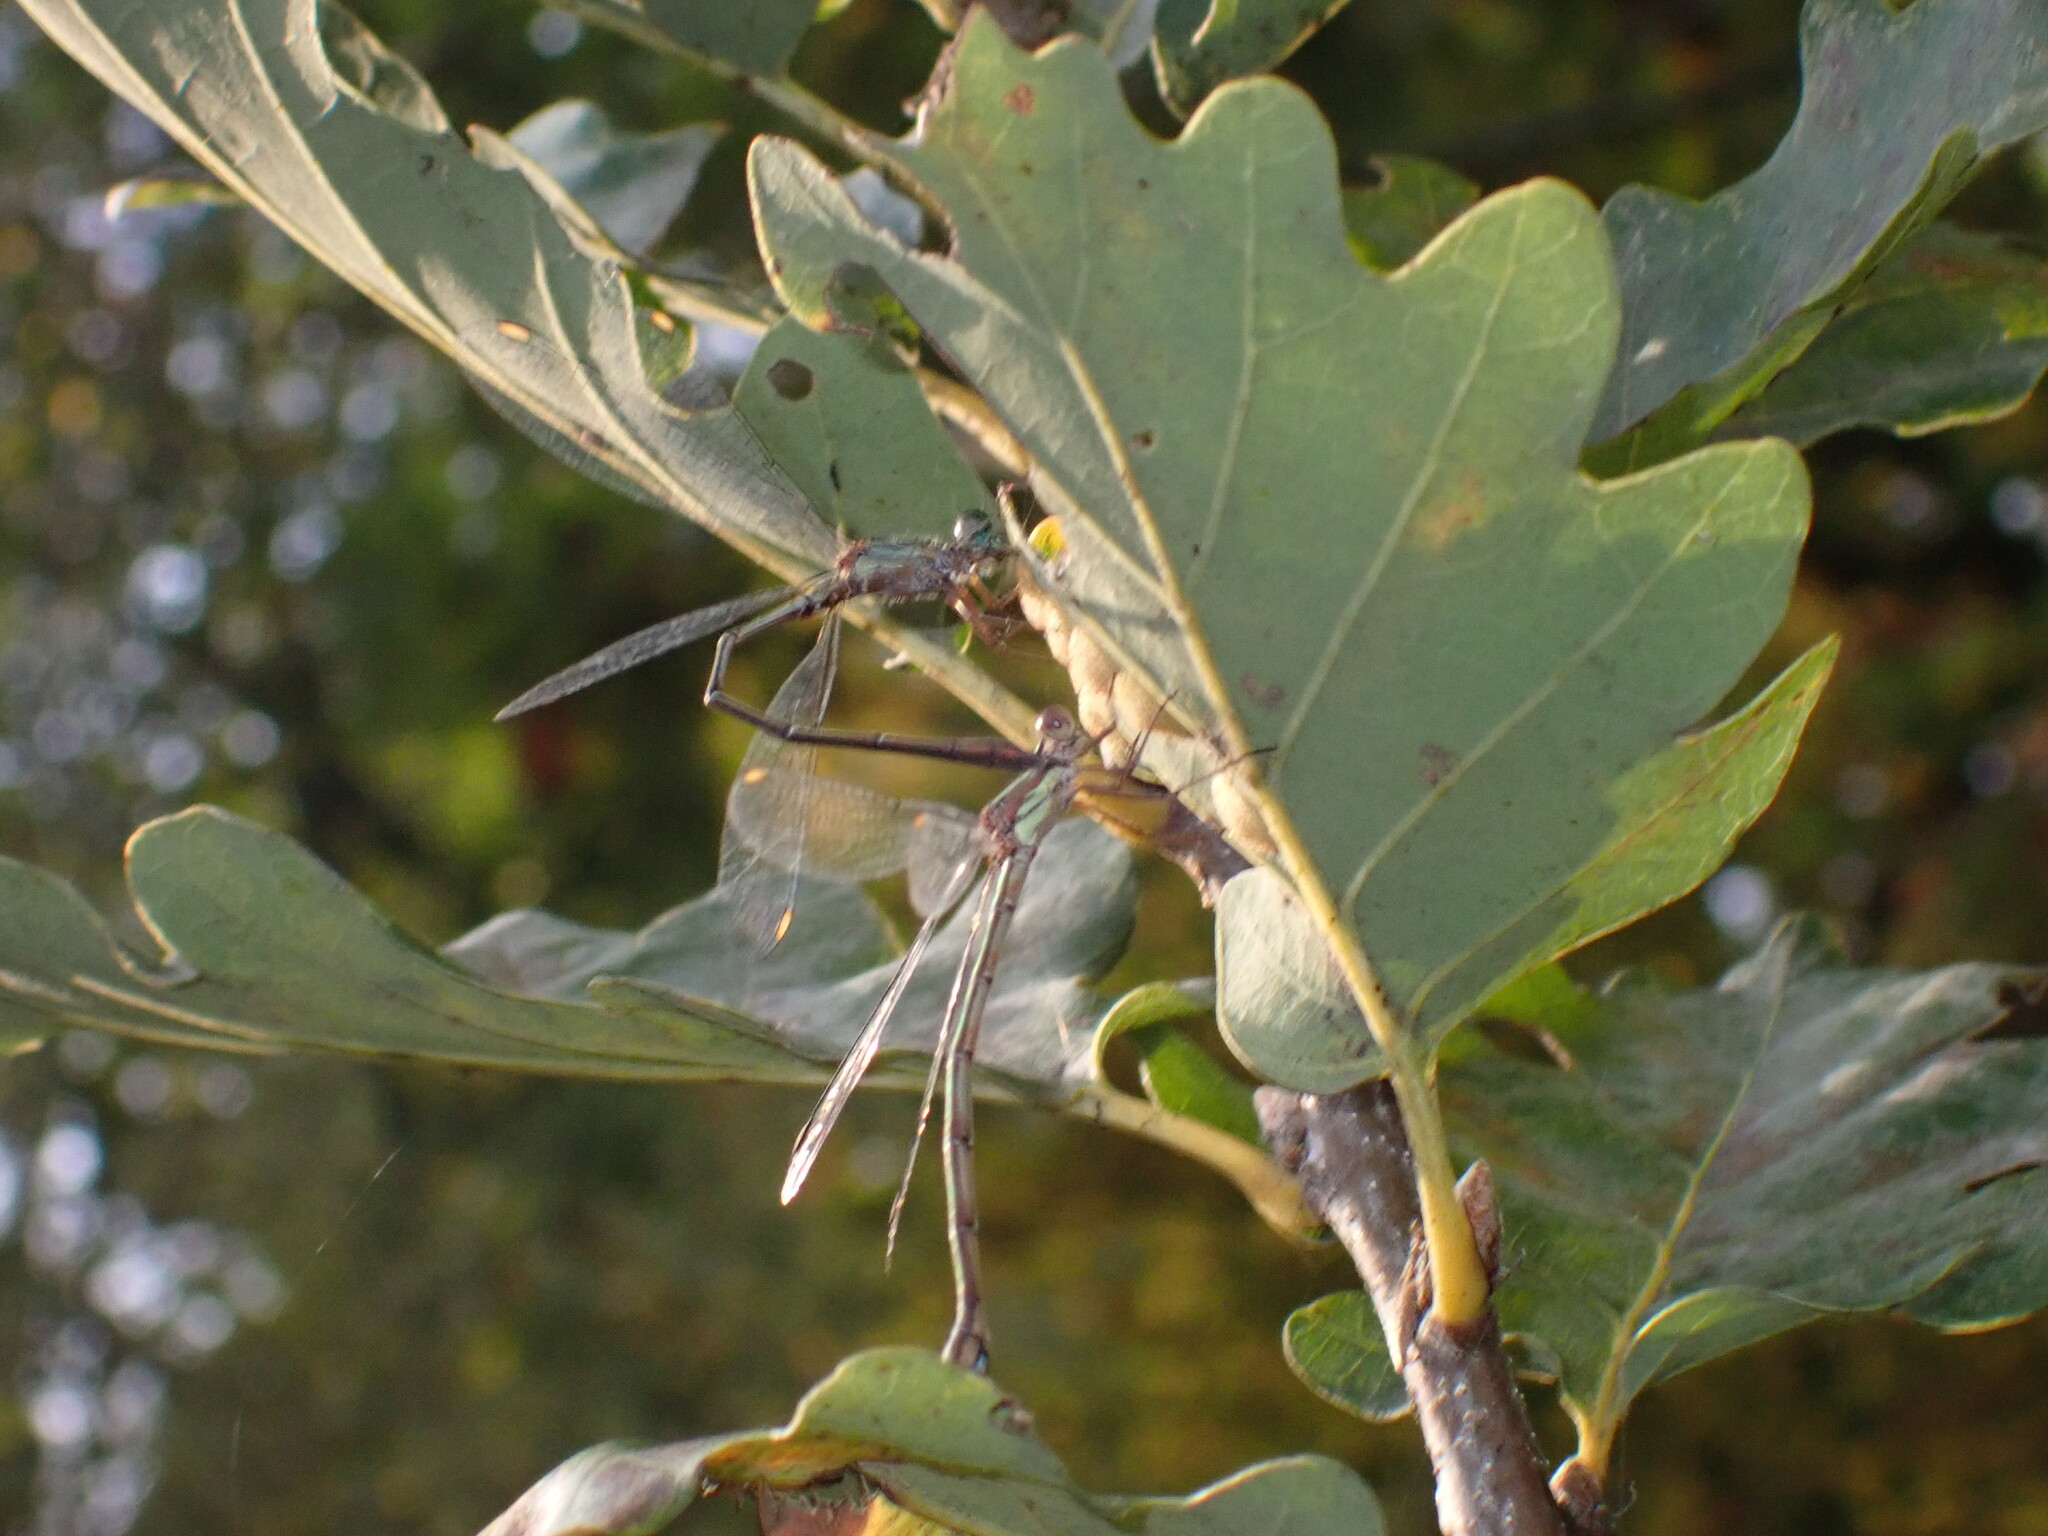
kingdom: Animalia
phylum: Arthropoda
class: Insecta
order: Odonata
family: Lestidae
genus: Chalcolestes
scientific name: Chalcolestes viridis
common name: Green emerald damselfly
